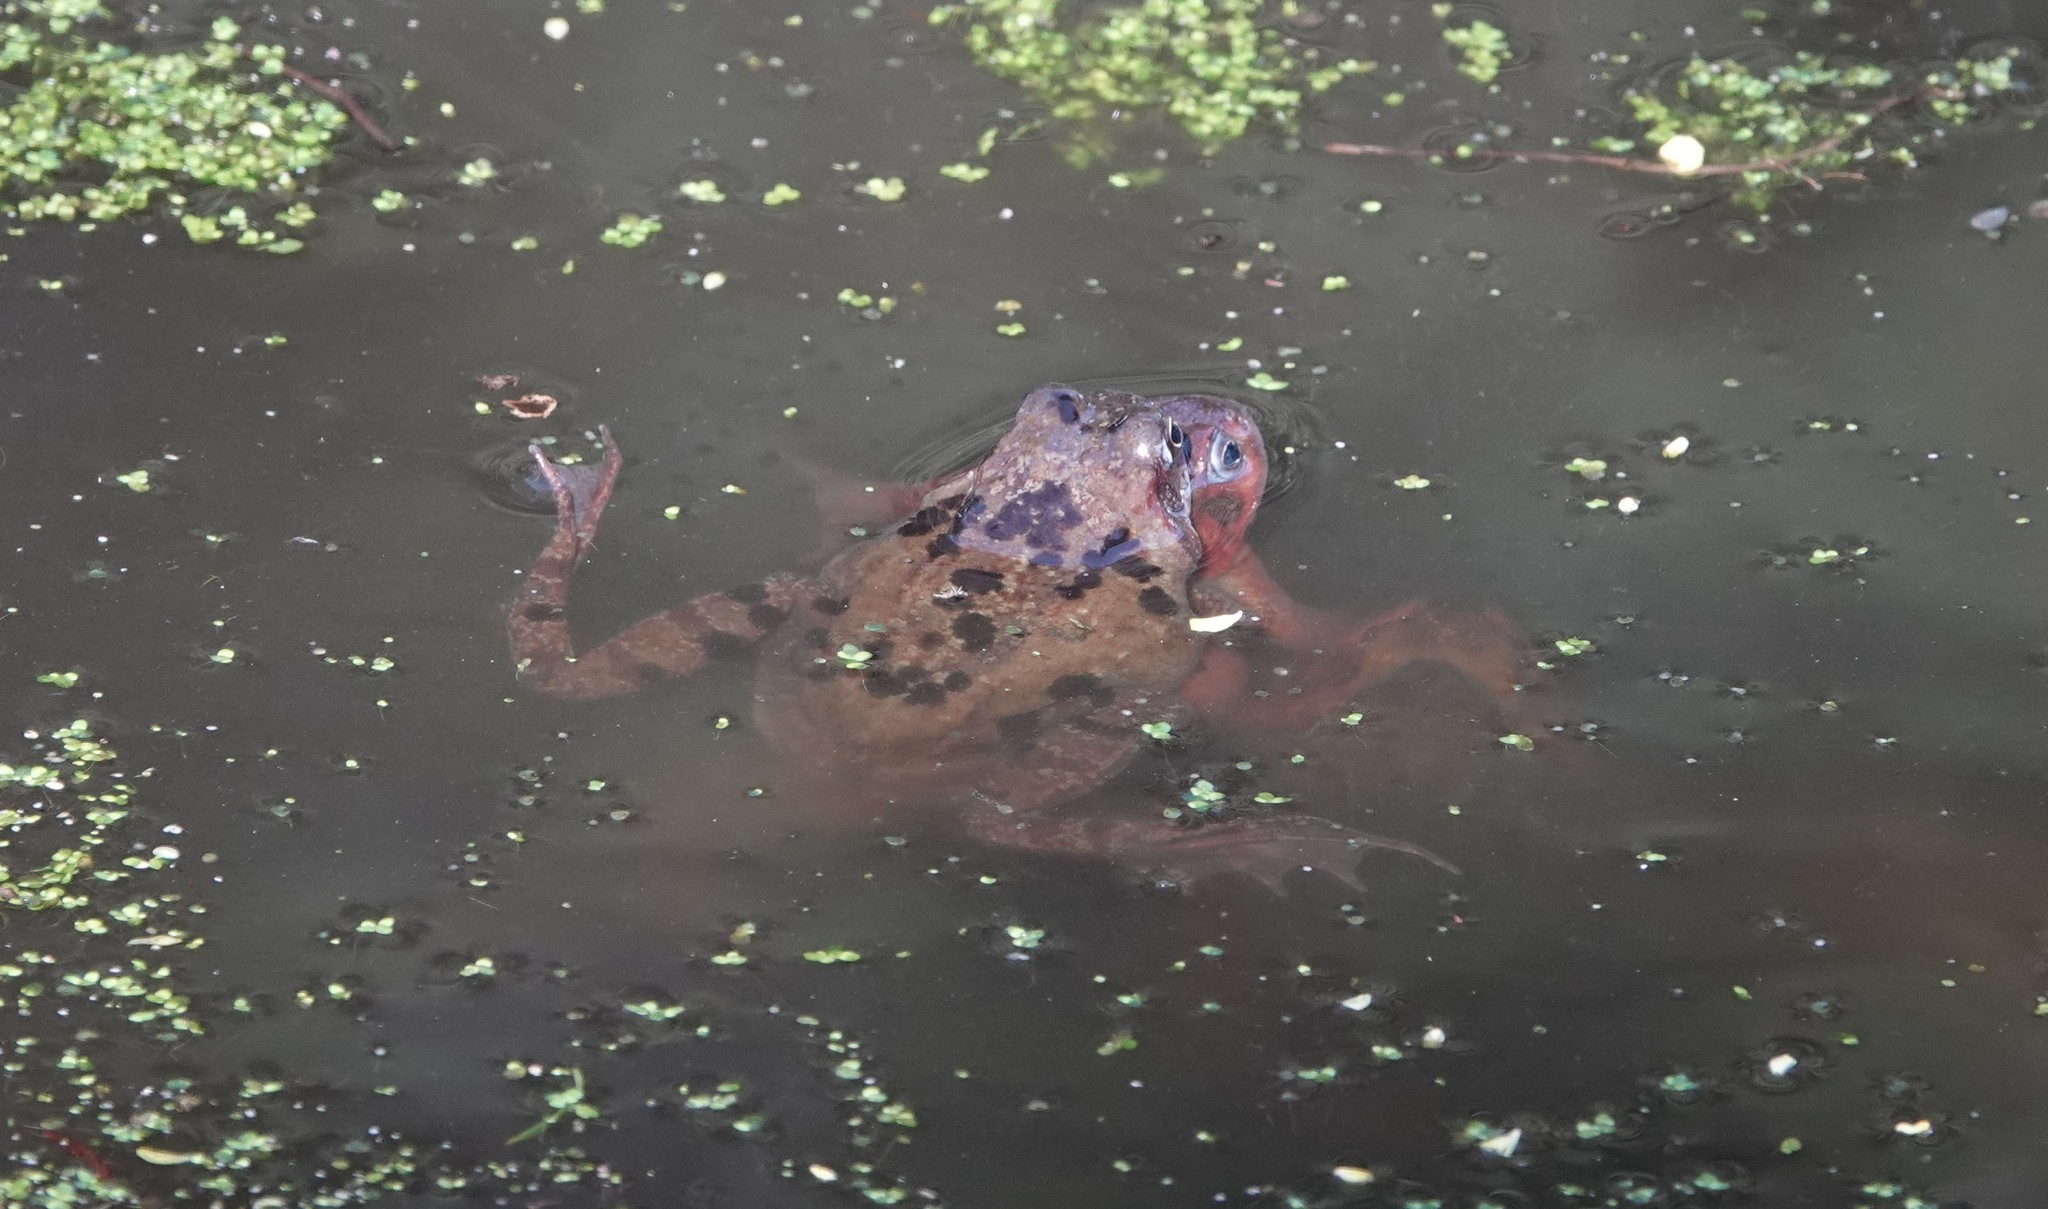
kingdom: Animalia
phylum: Chordata
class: Amphibia
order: Anura
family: Ranidae
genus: Rana
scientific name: Rana temporaria
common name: Common frog
